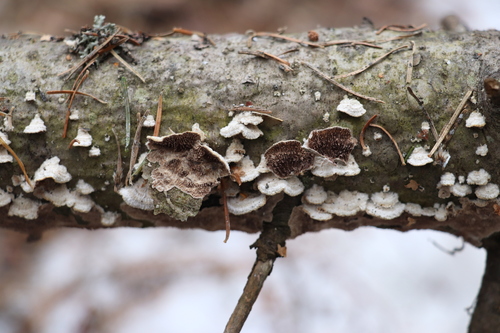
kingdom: Fungi
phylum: Basidiomycota
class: Agaricomycetes
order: Hymenochaetales
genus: Trichaptum
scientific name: Trichaptum fuscoviolaceum
